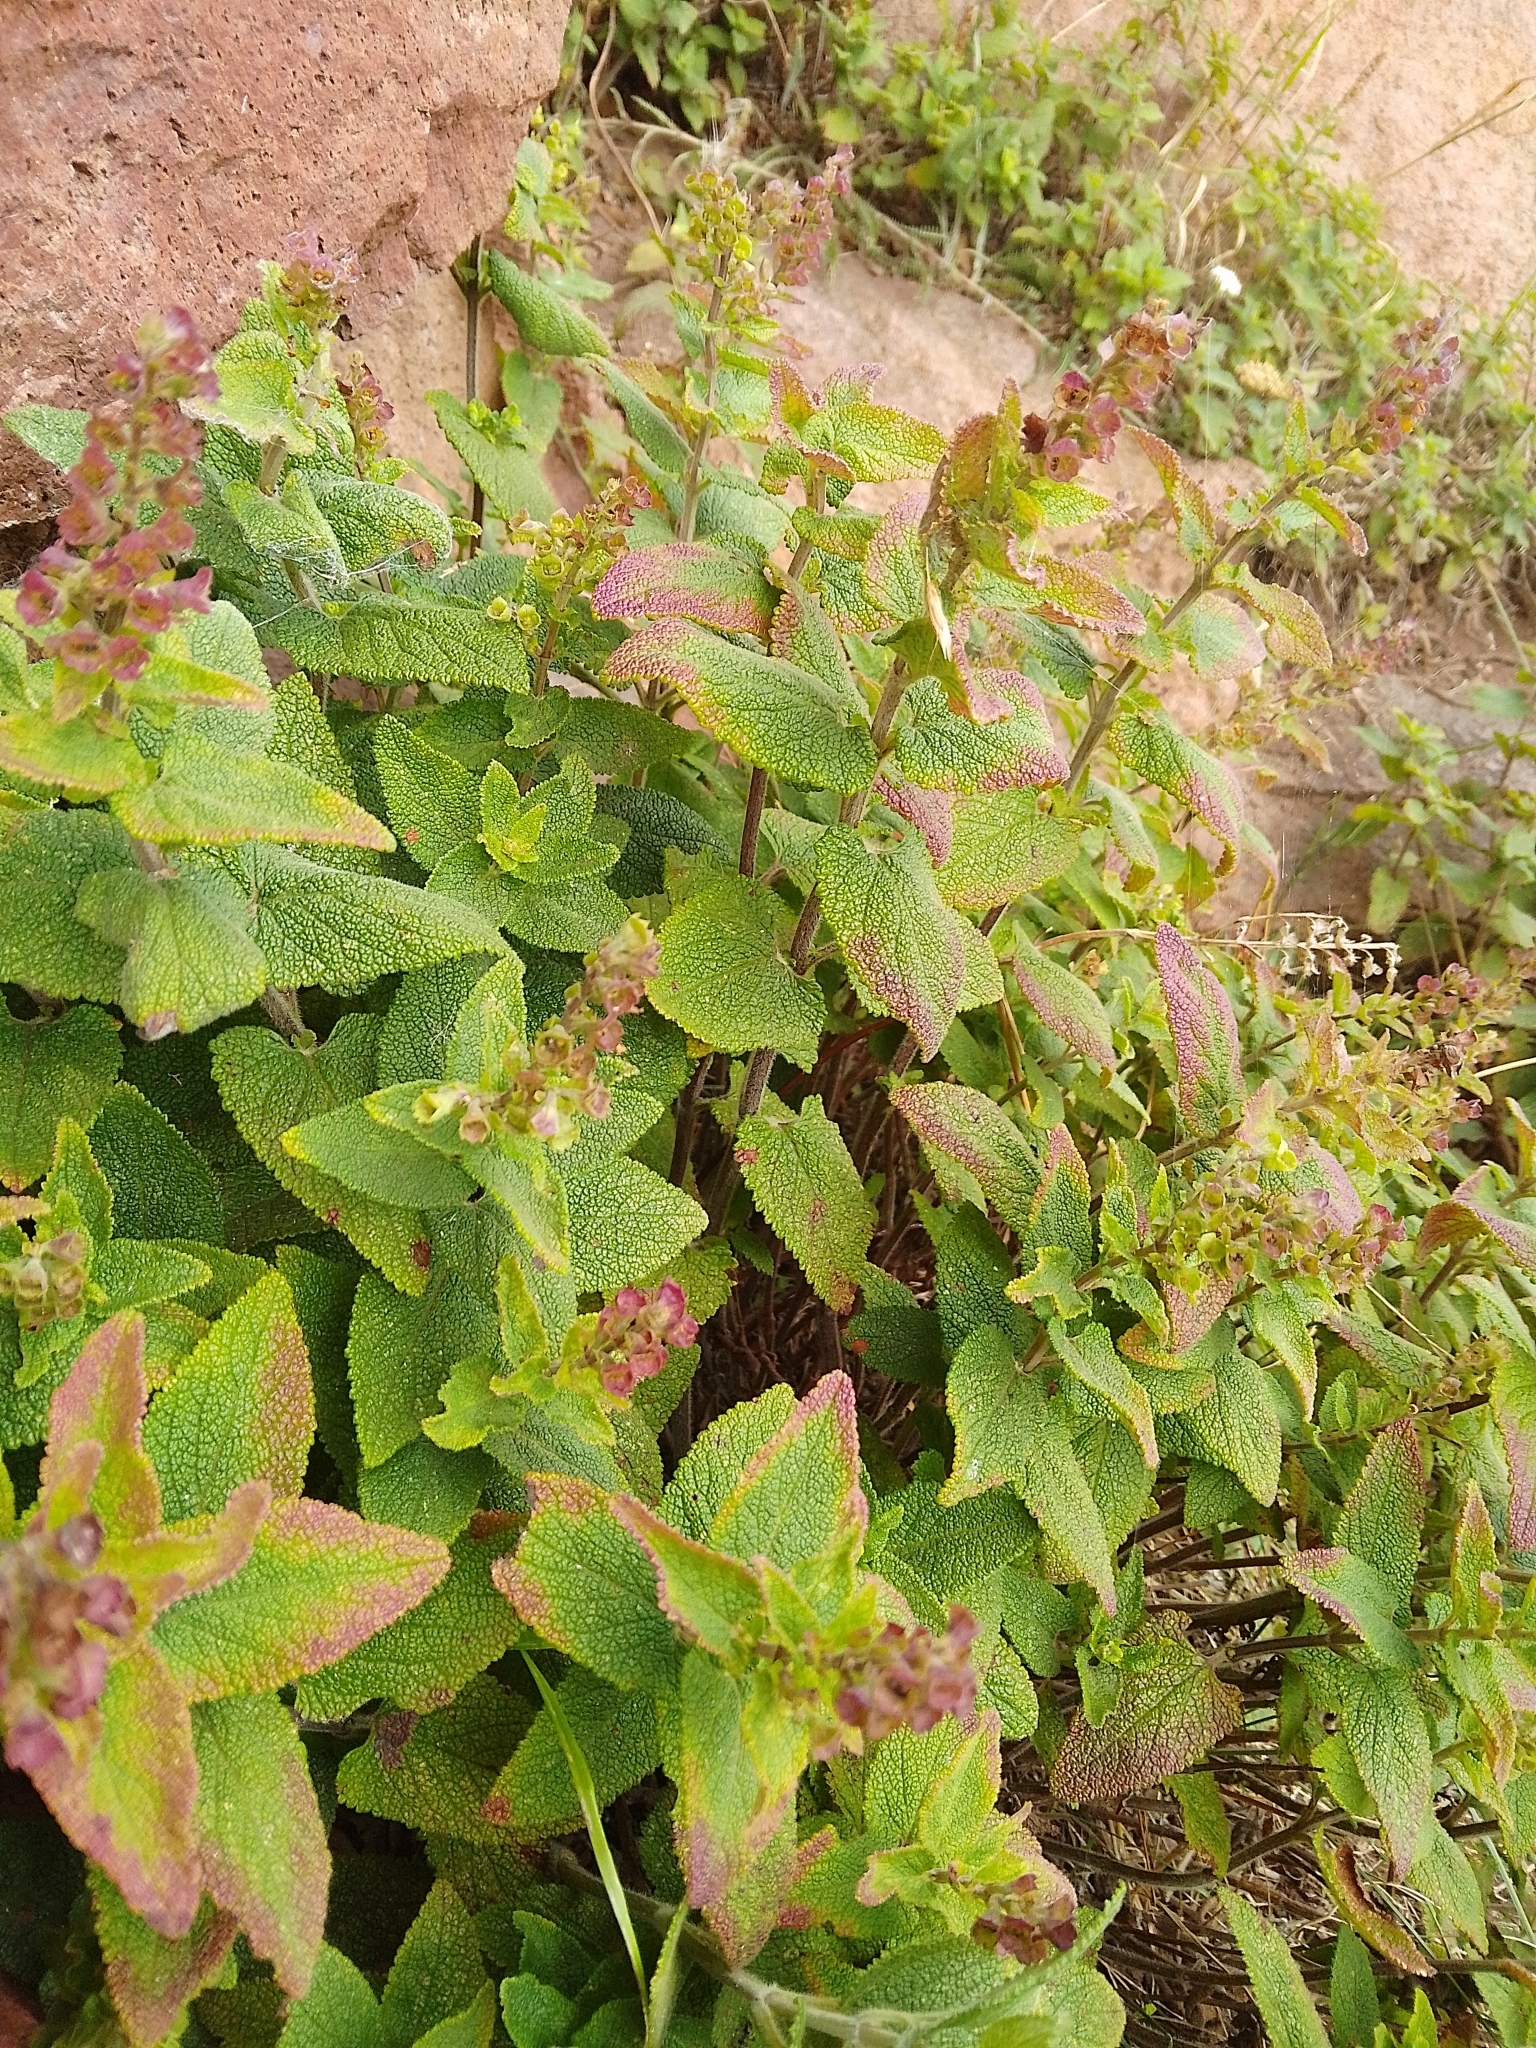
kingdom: Plantae
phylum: Tracheophyta
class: Magnoliopsida
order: Lamiales
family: Lamiaceae
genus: Teucrium
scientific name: Teucrium scorodonia
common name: Woodland germander
